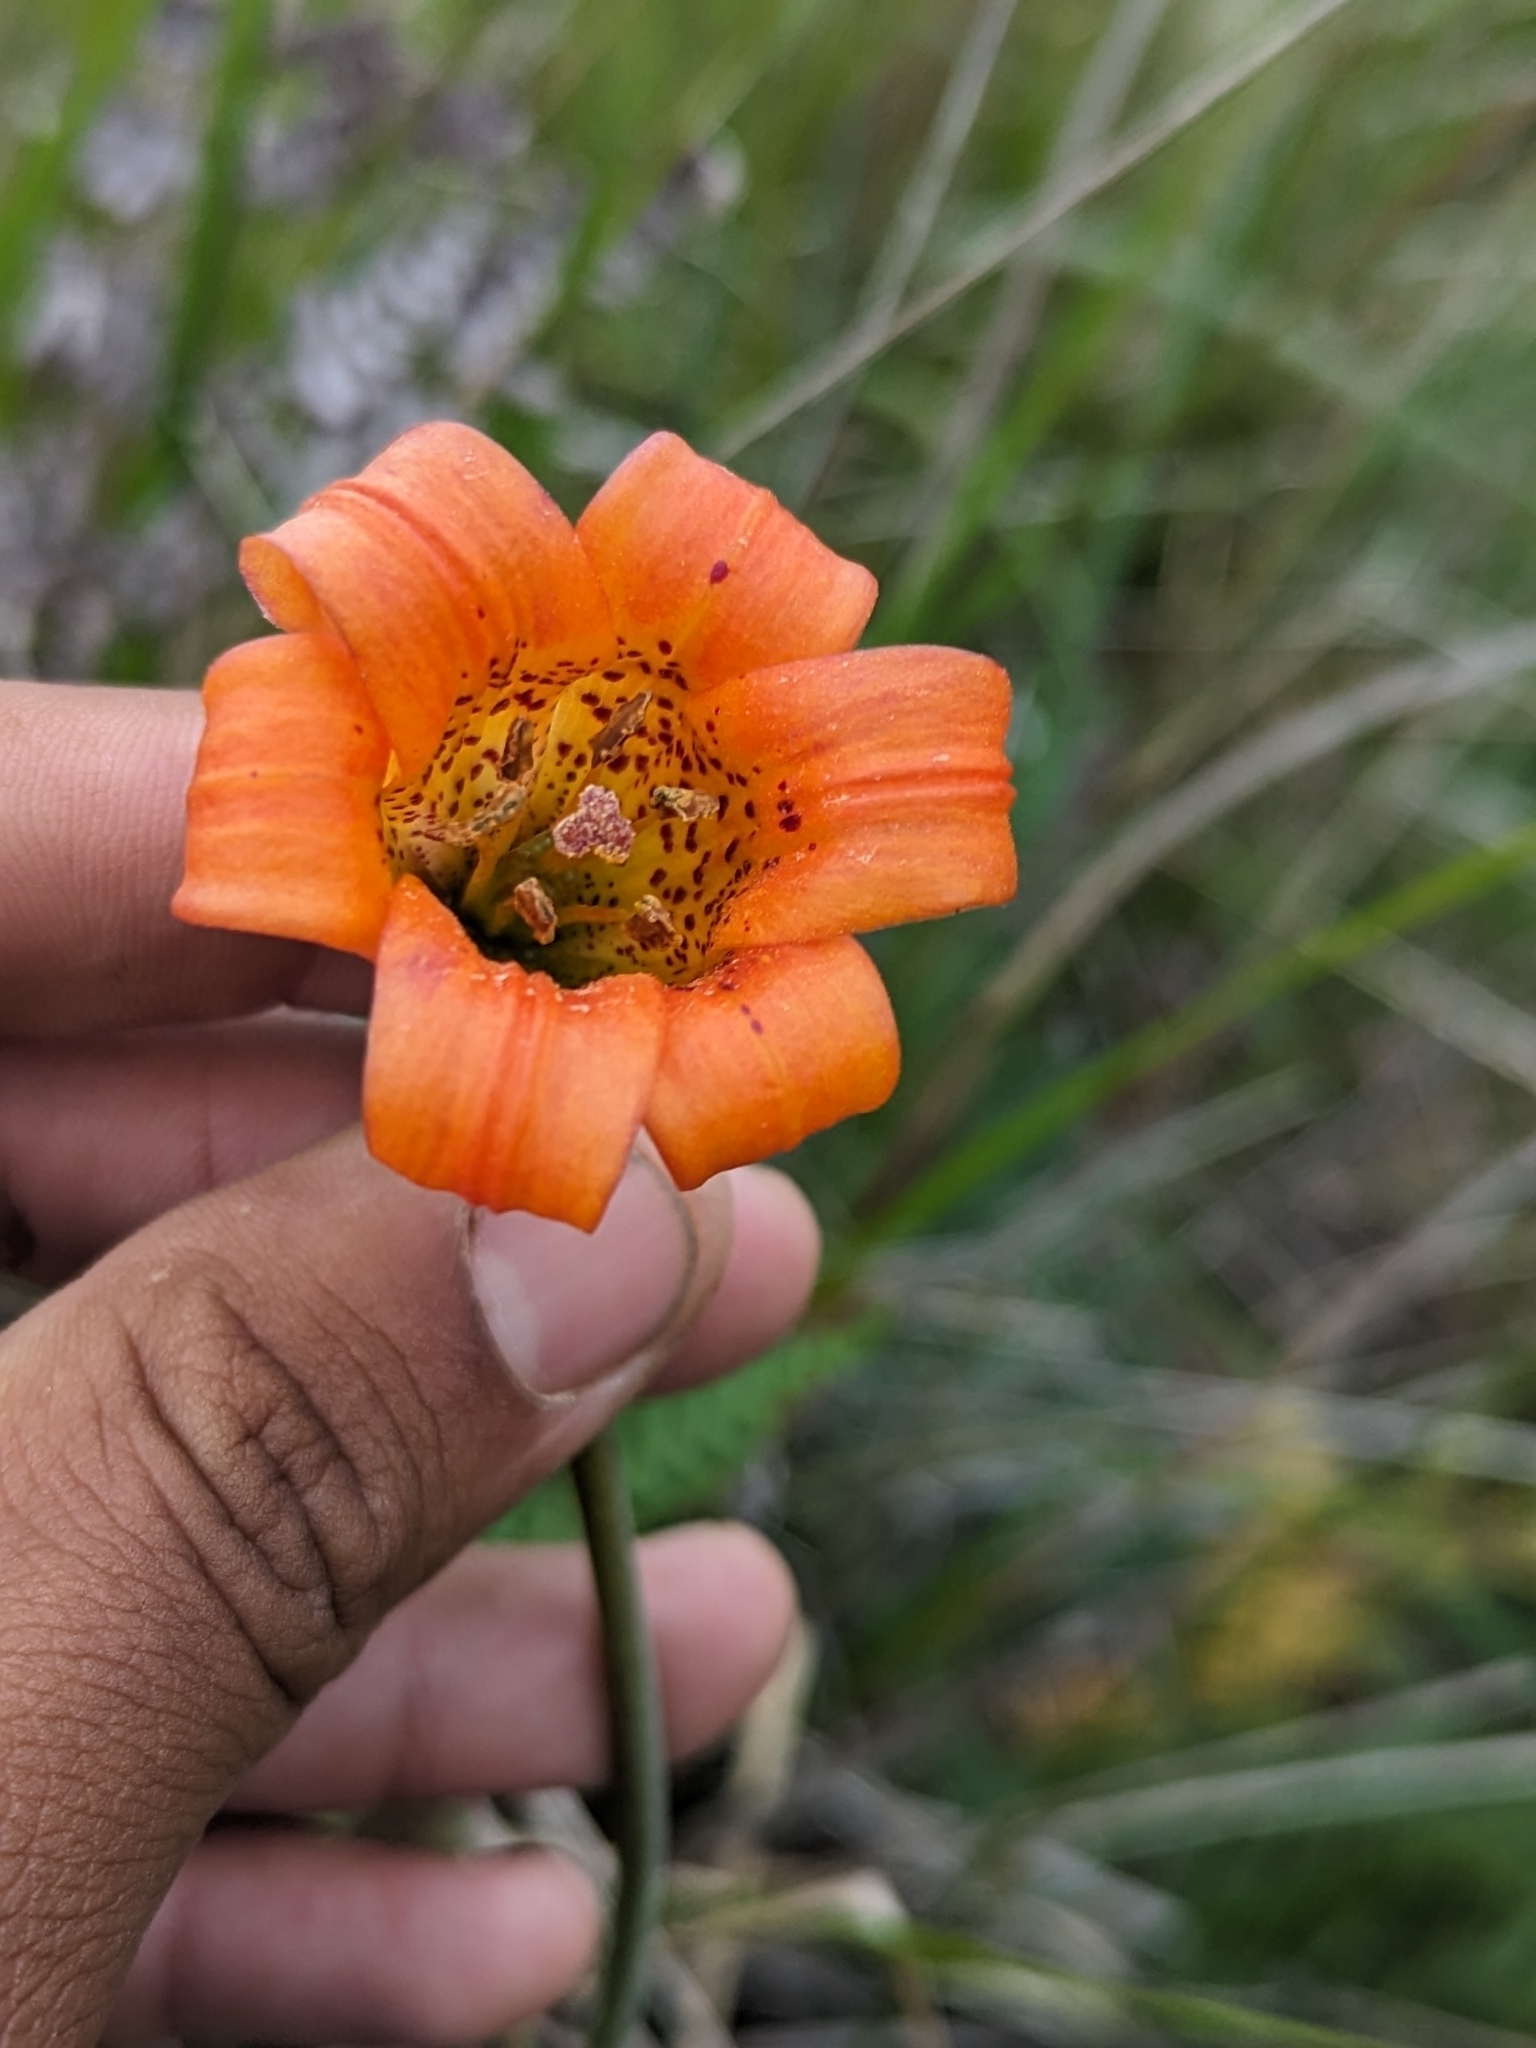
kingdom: Plantae
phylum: Tracheophyta
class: Liliopsida
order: Liliales
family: Liliaceae
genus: Lilium
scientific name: Lilium maritimum
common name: Coastal lily
